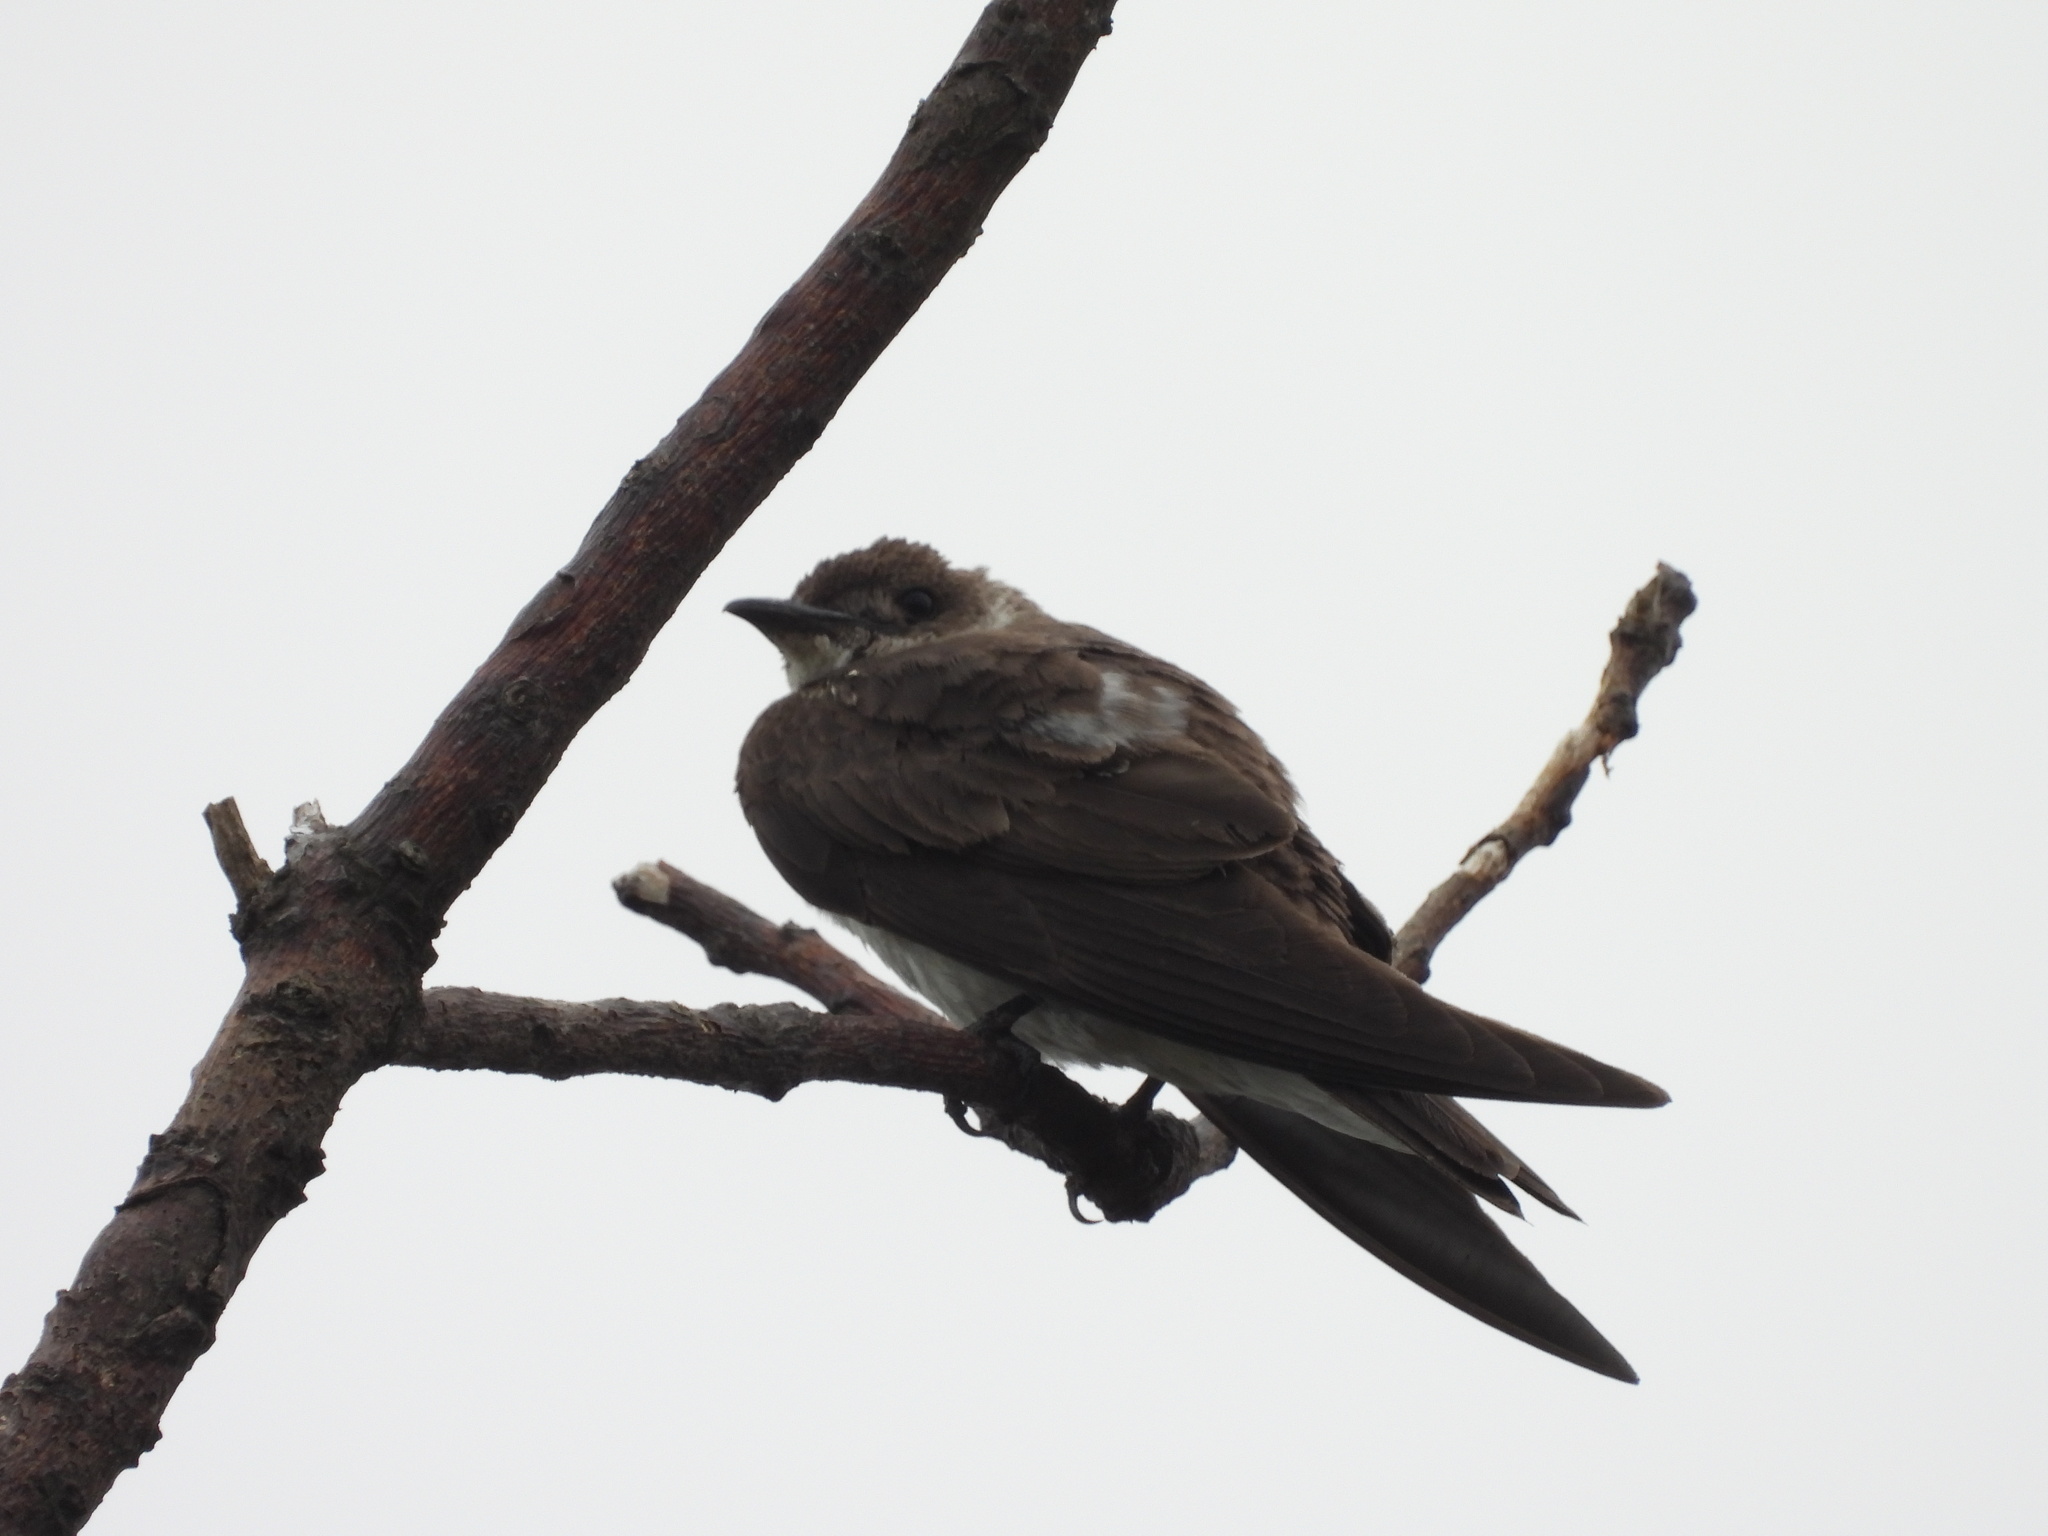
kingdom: Animalia
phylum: Chordata
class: Aves
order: Passeriformes
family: Hirundinidae
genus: Progne
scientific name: Progne tapera
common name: Brown-chested martin
